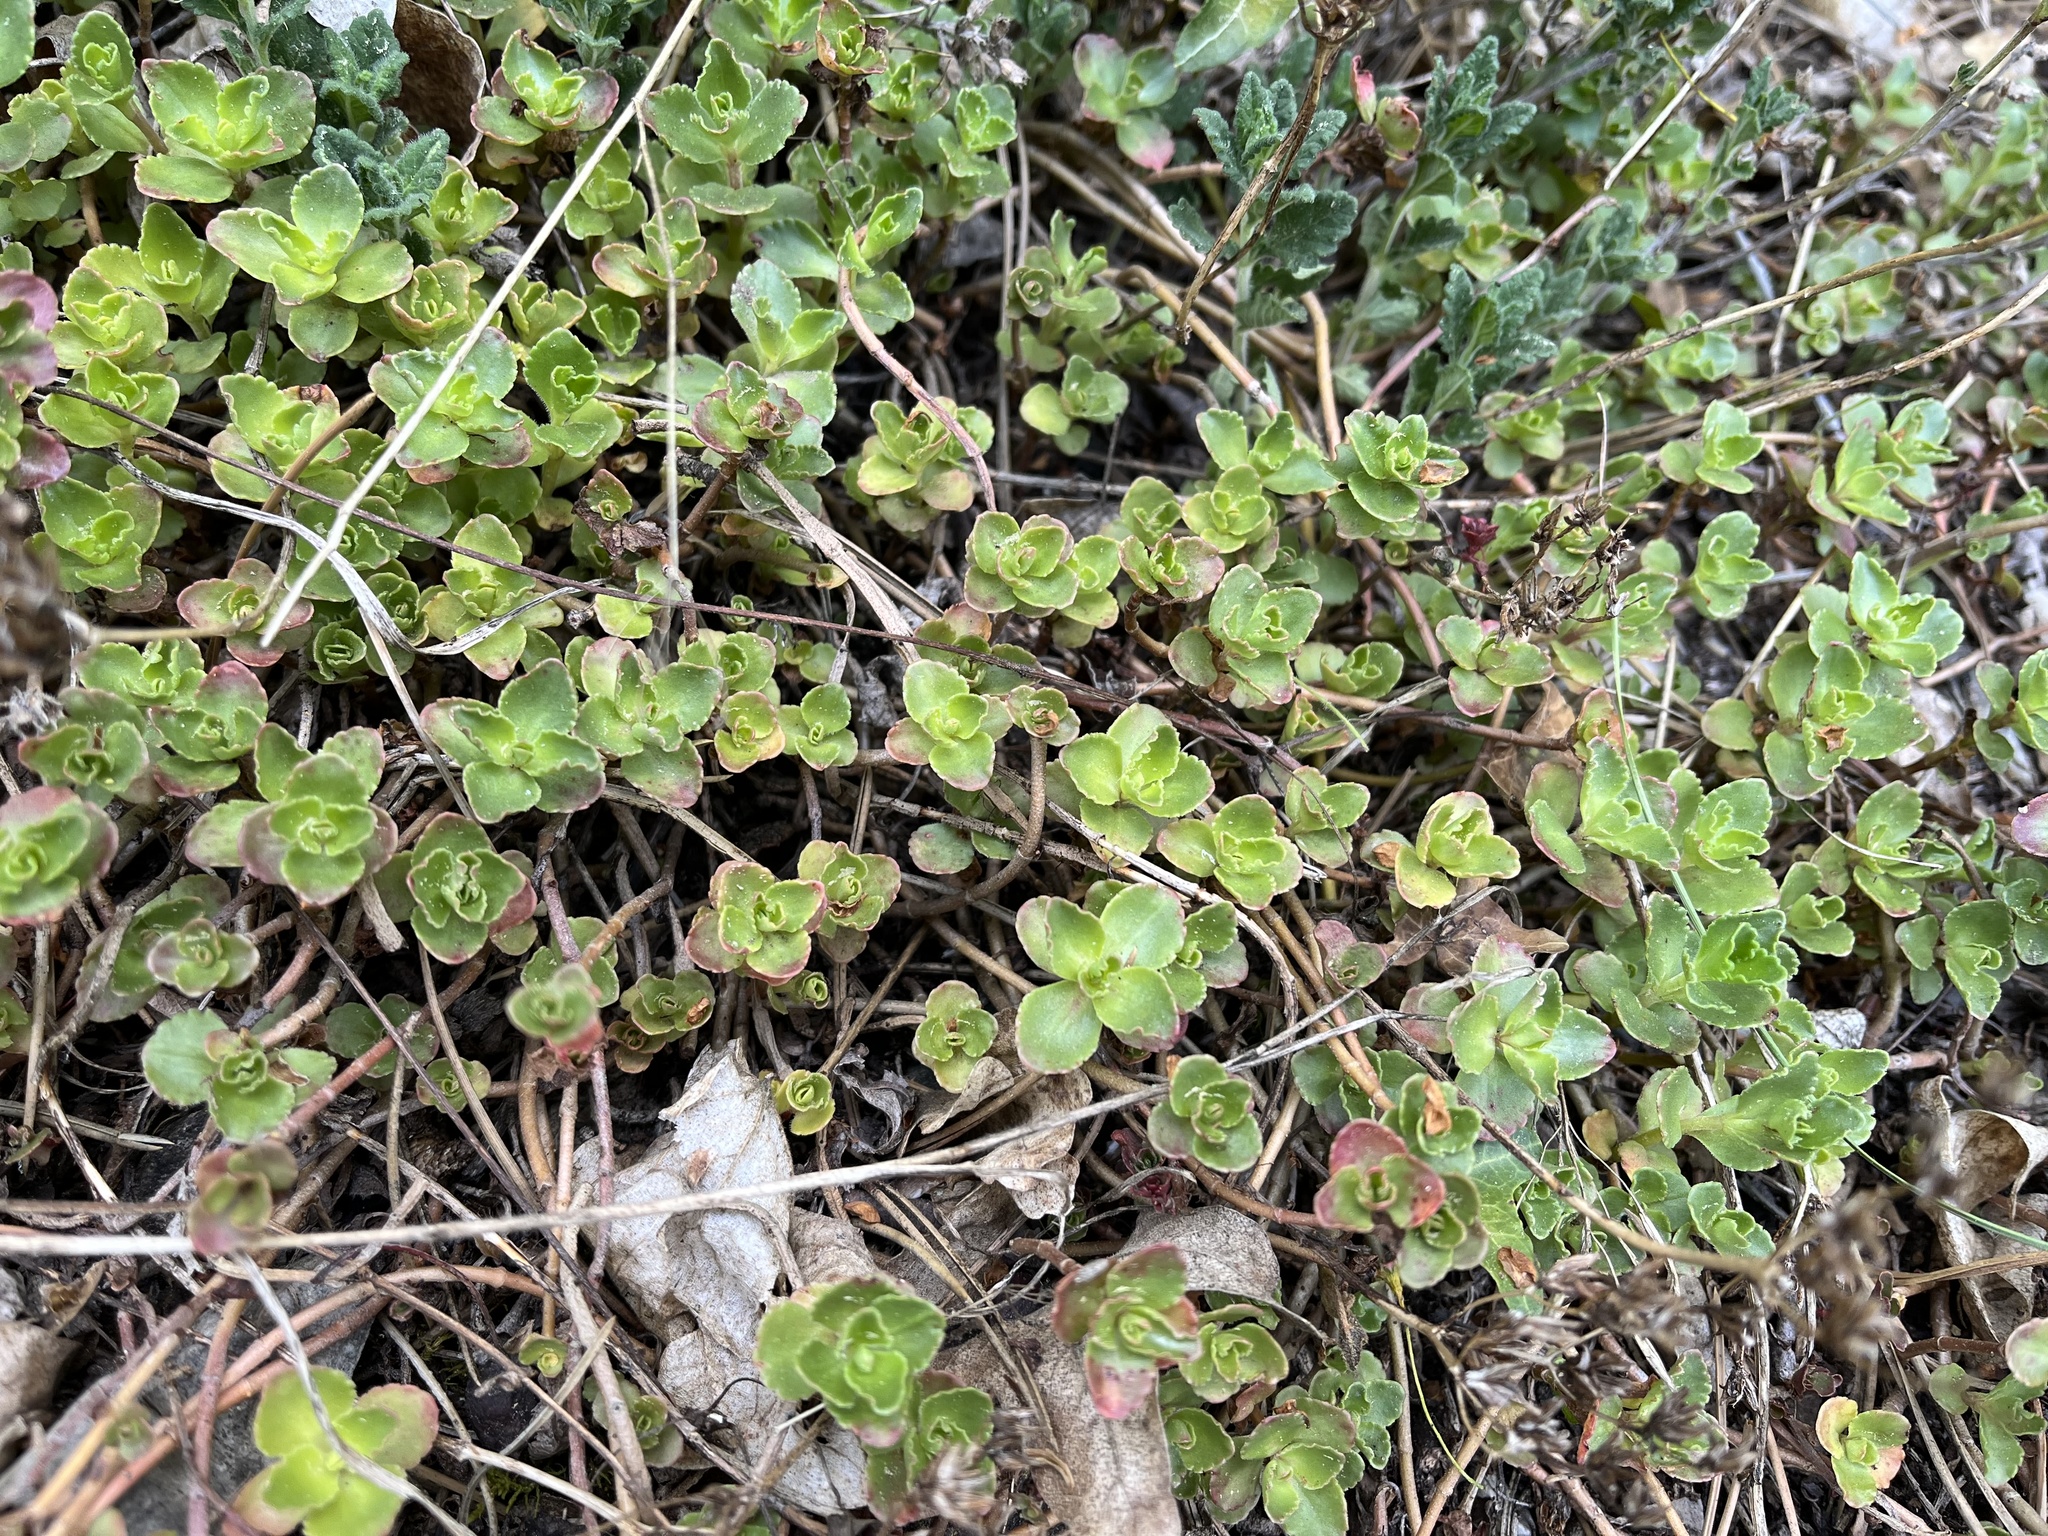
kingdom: Plantae
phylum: Tracheophyta
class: Magnoliopsida
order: Saxifragales
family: Crassulaceae
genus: Phedimus
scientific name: Phedimus spurius
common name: Caucasian stonecrop
